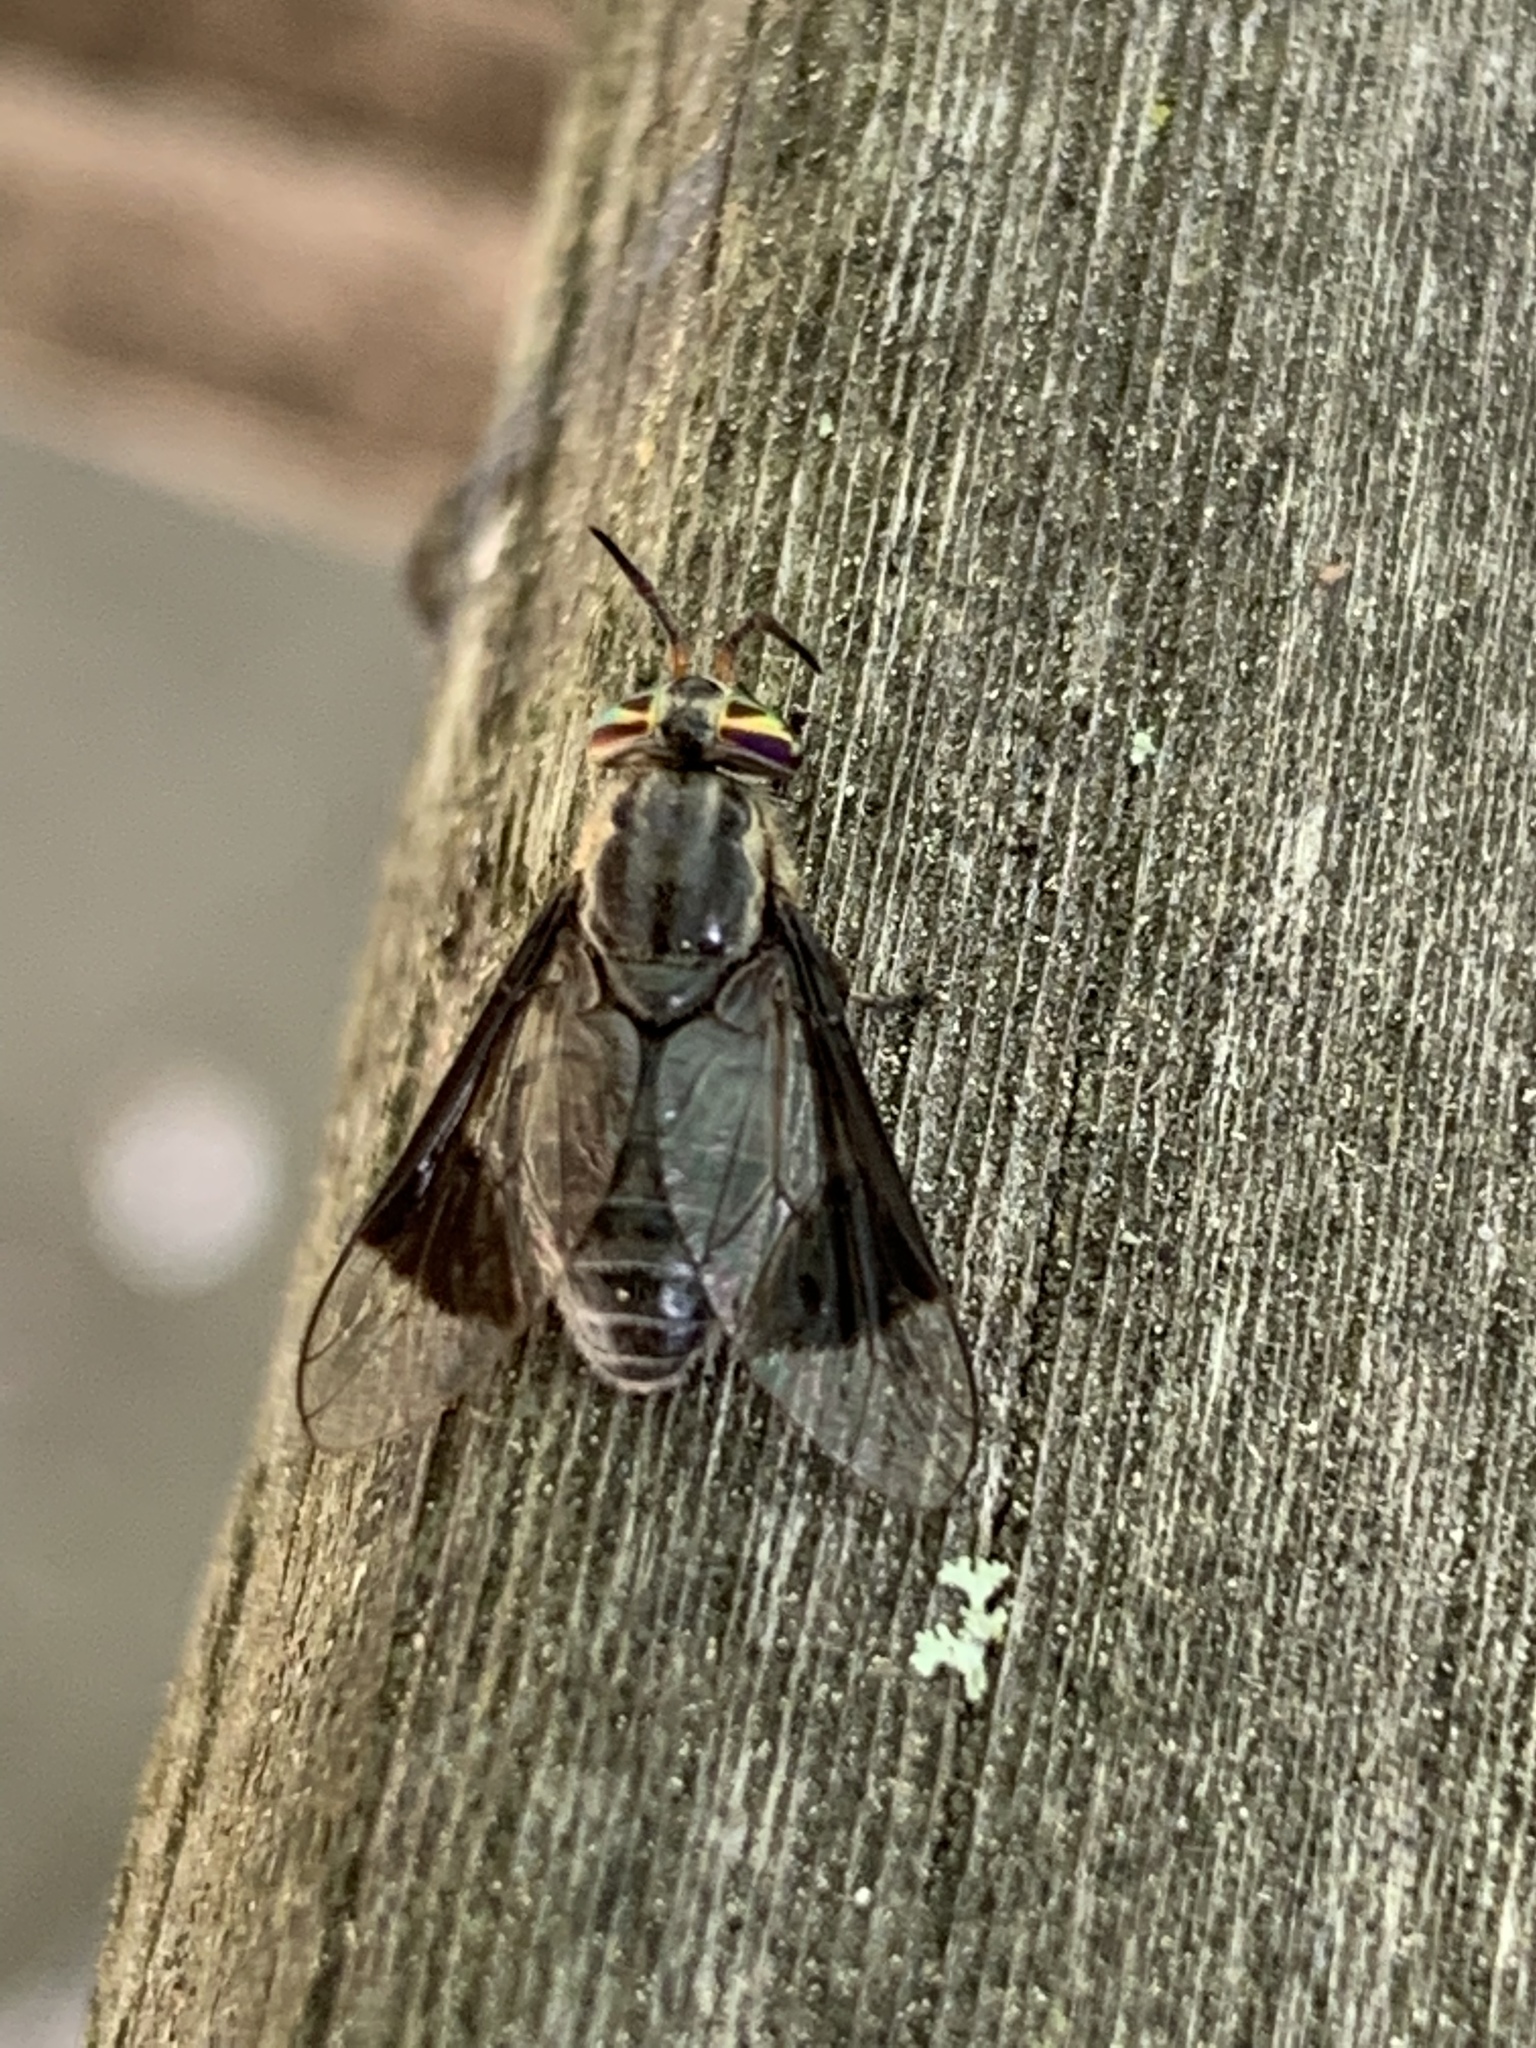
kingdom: Animalia
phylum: Arthropoda
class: Insecta
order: Diptera
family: Tabanidae
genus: Chrysops
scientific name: Chrysops calvus
